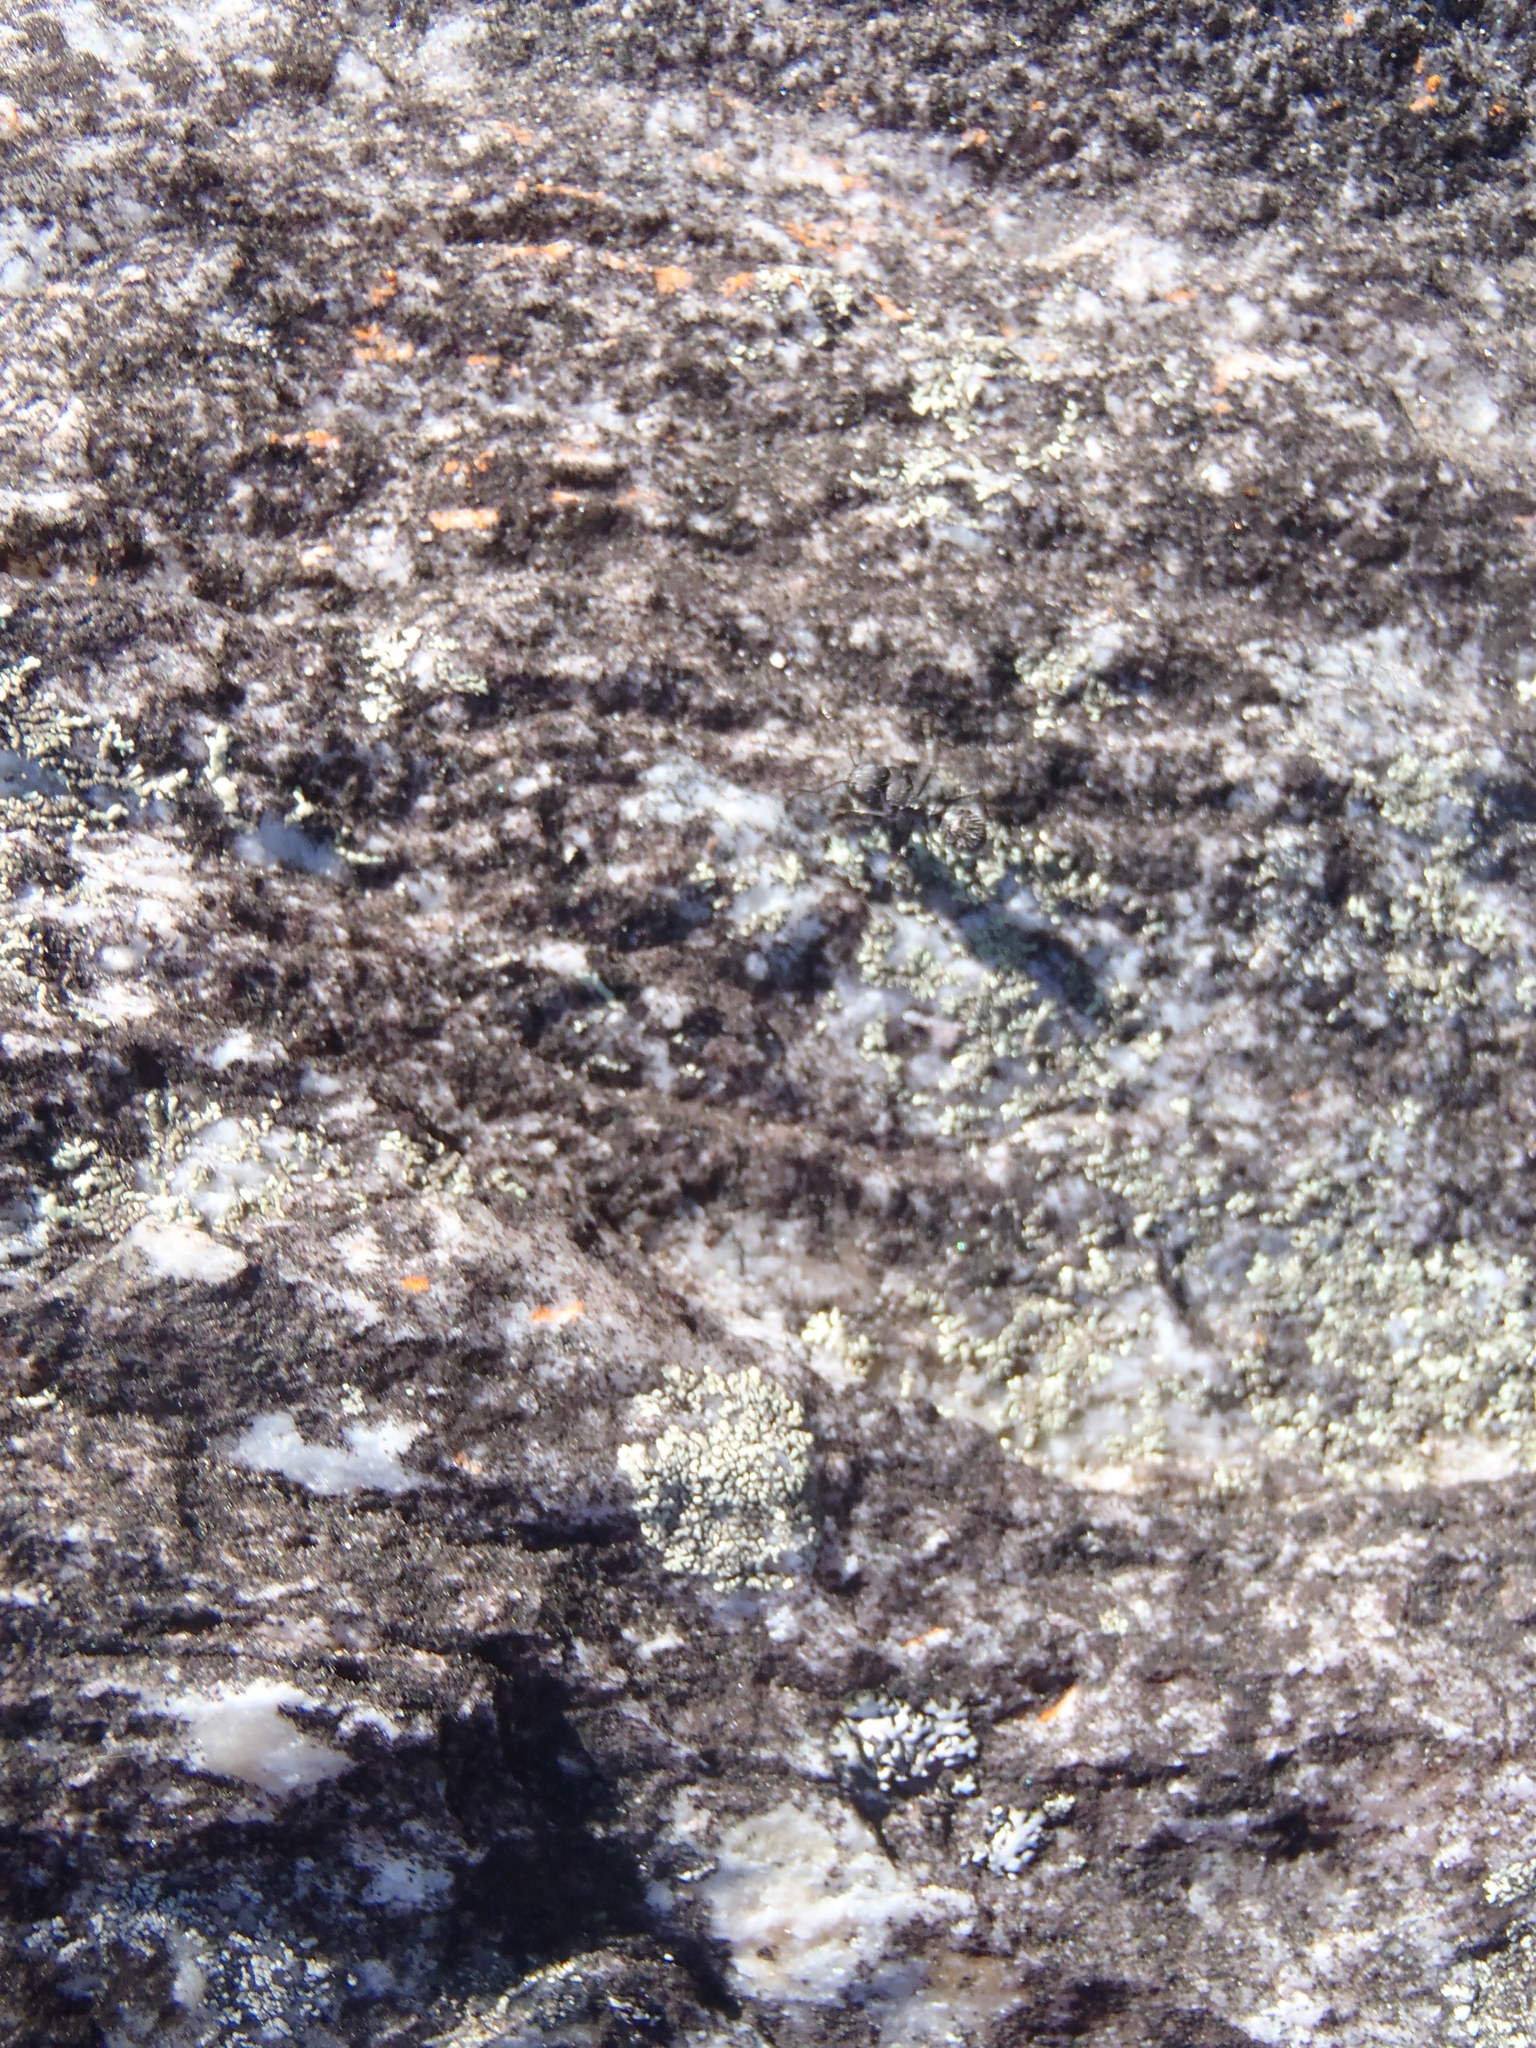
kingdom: Animalia
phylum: Arthropoda
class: Insecta
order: Hymenoptera
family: Formicidae
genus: Camponotus
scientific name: Camponotus niveosetosus
